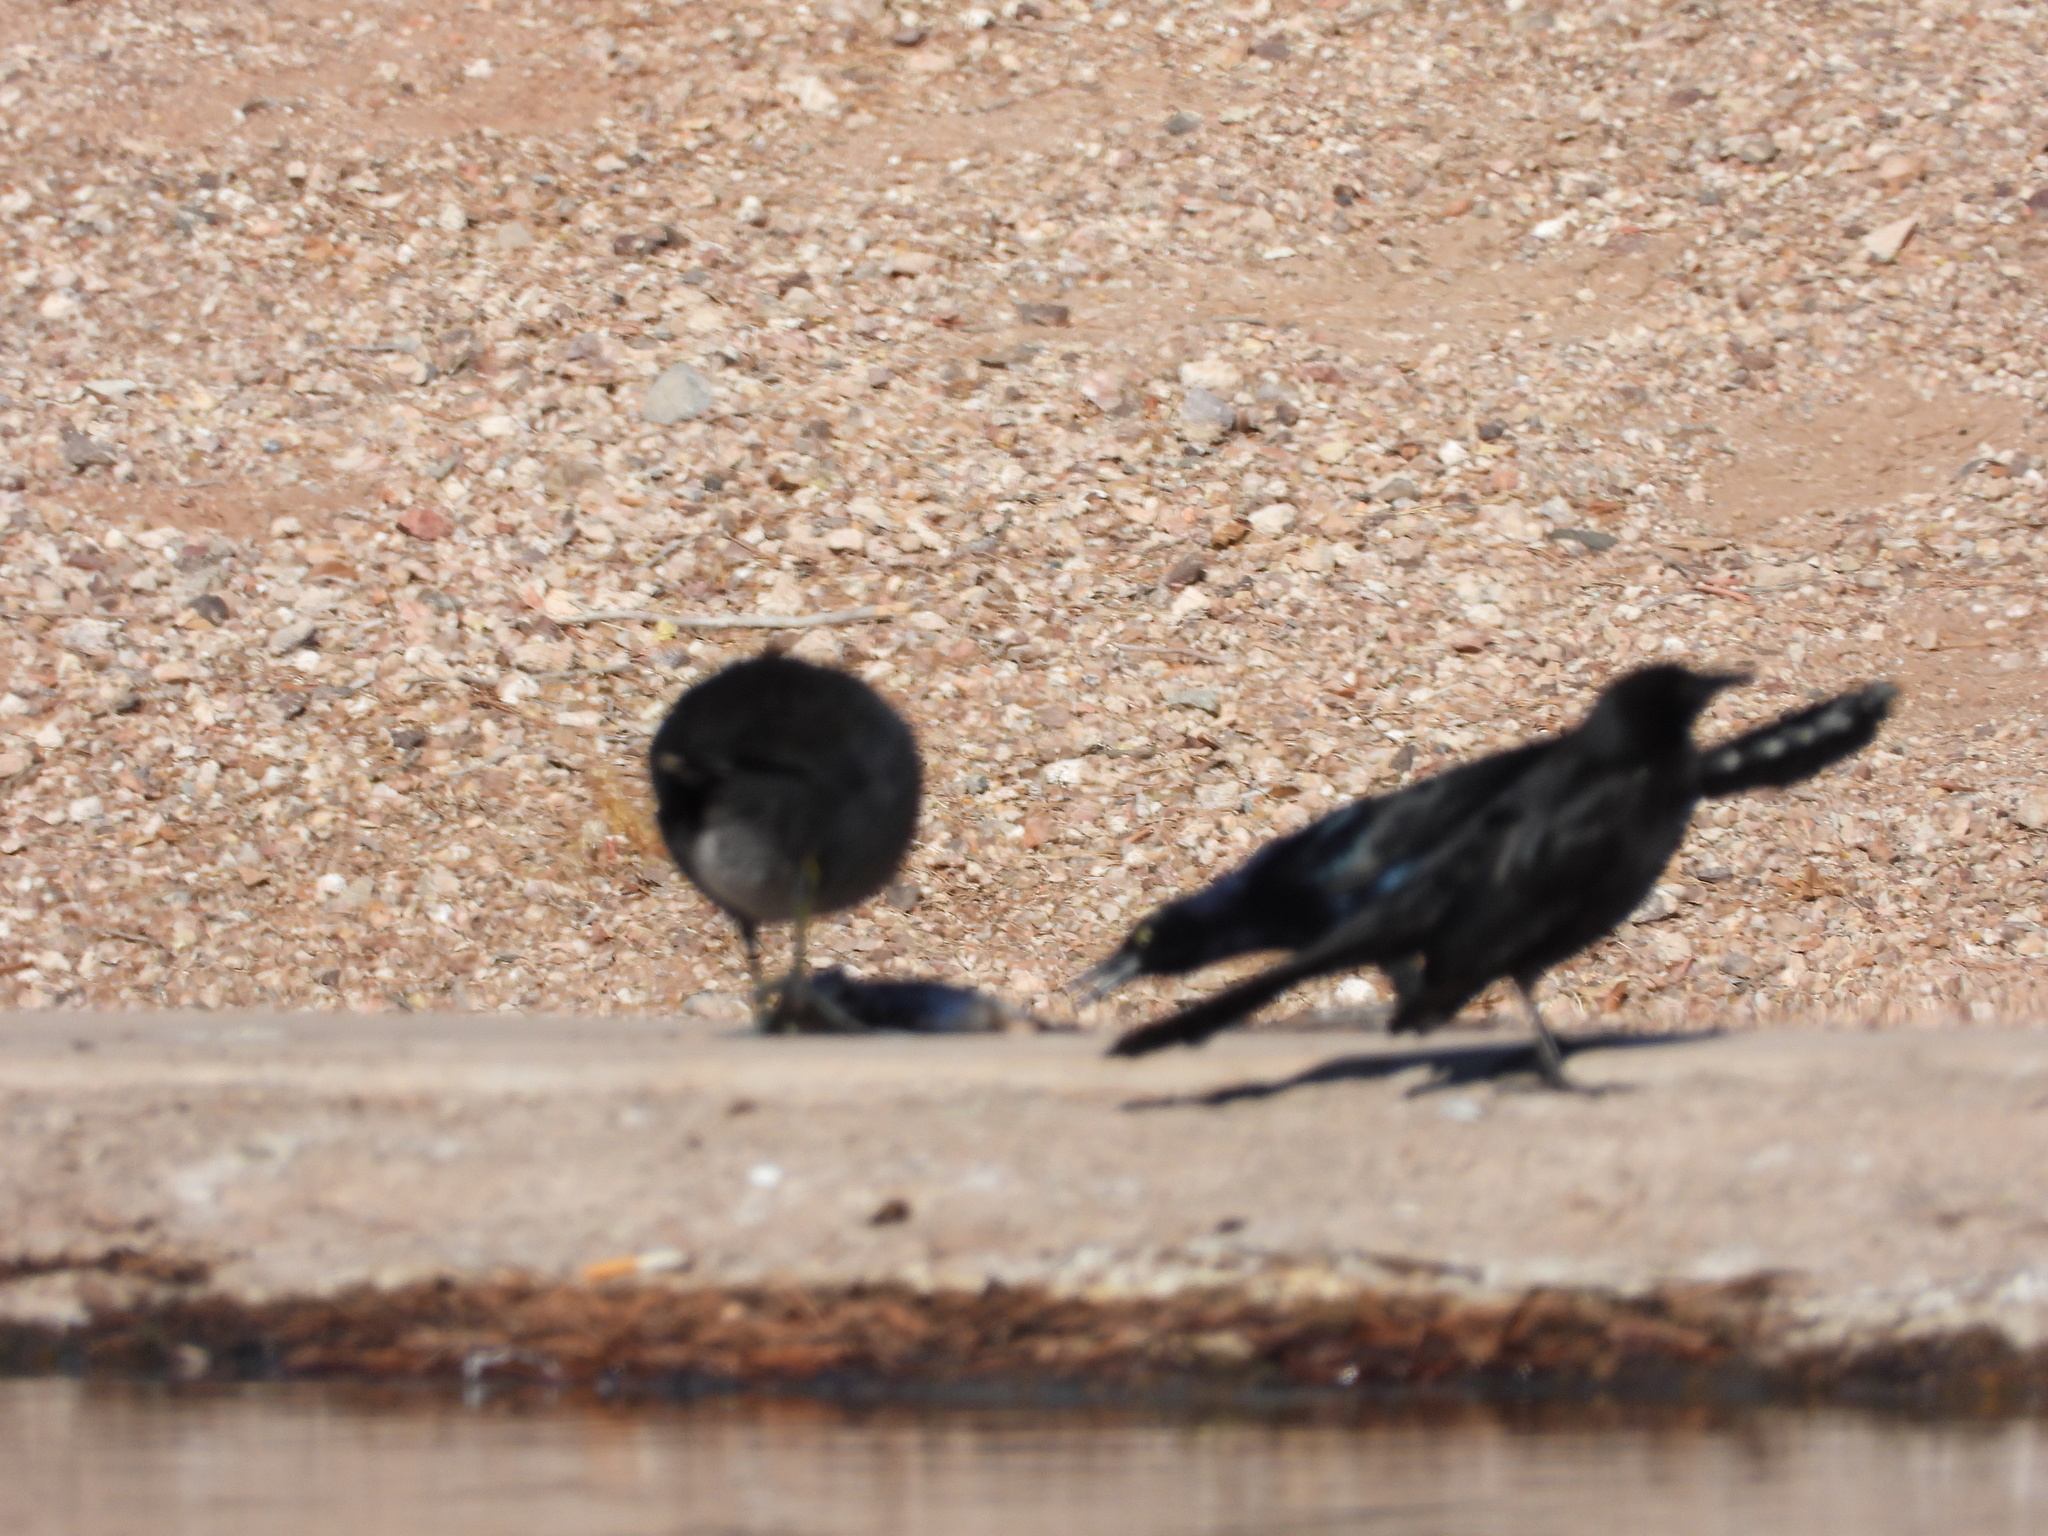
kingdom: Animalia
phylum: Chordata
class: Aves
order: Passeriformes
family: Icteridae
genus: Quiscalus
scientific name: Quiscalus mexicanus
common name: Great-tailed grackle
